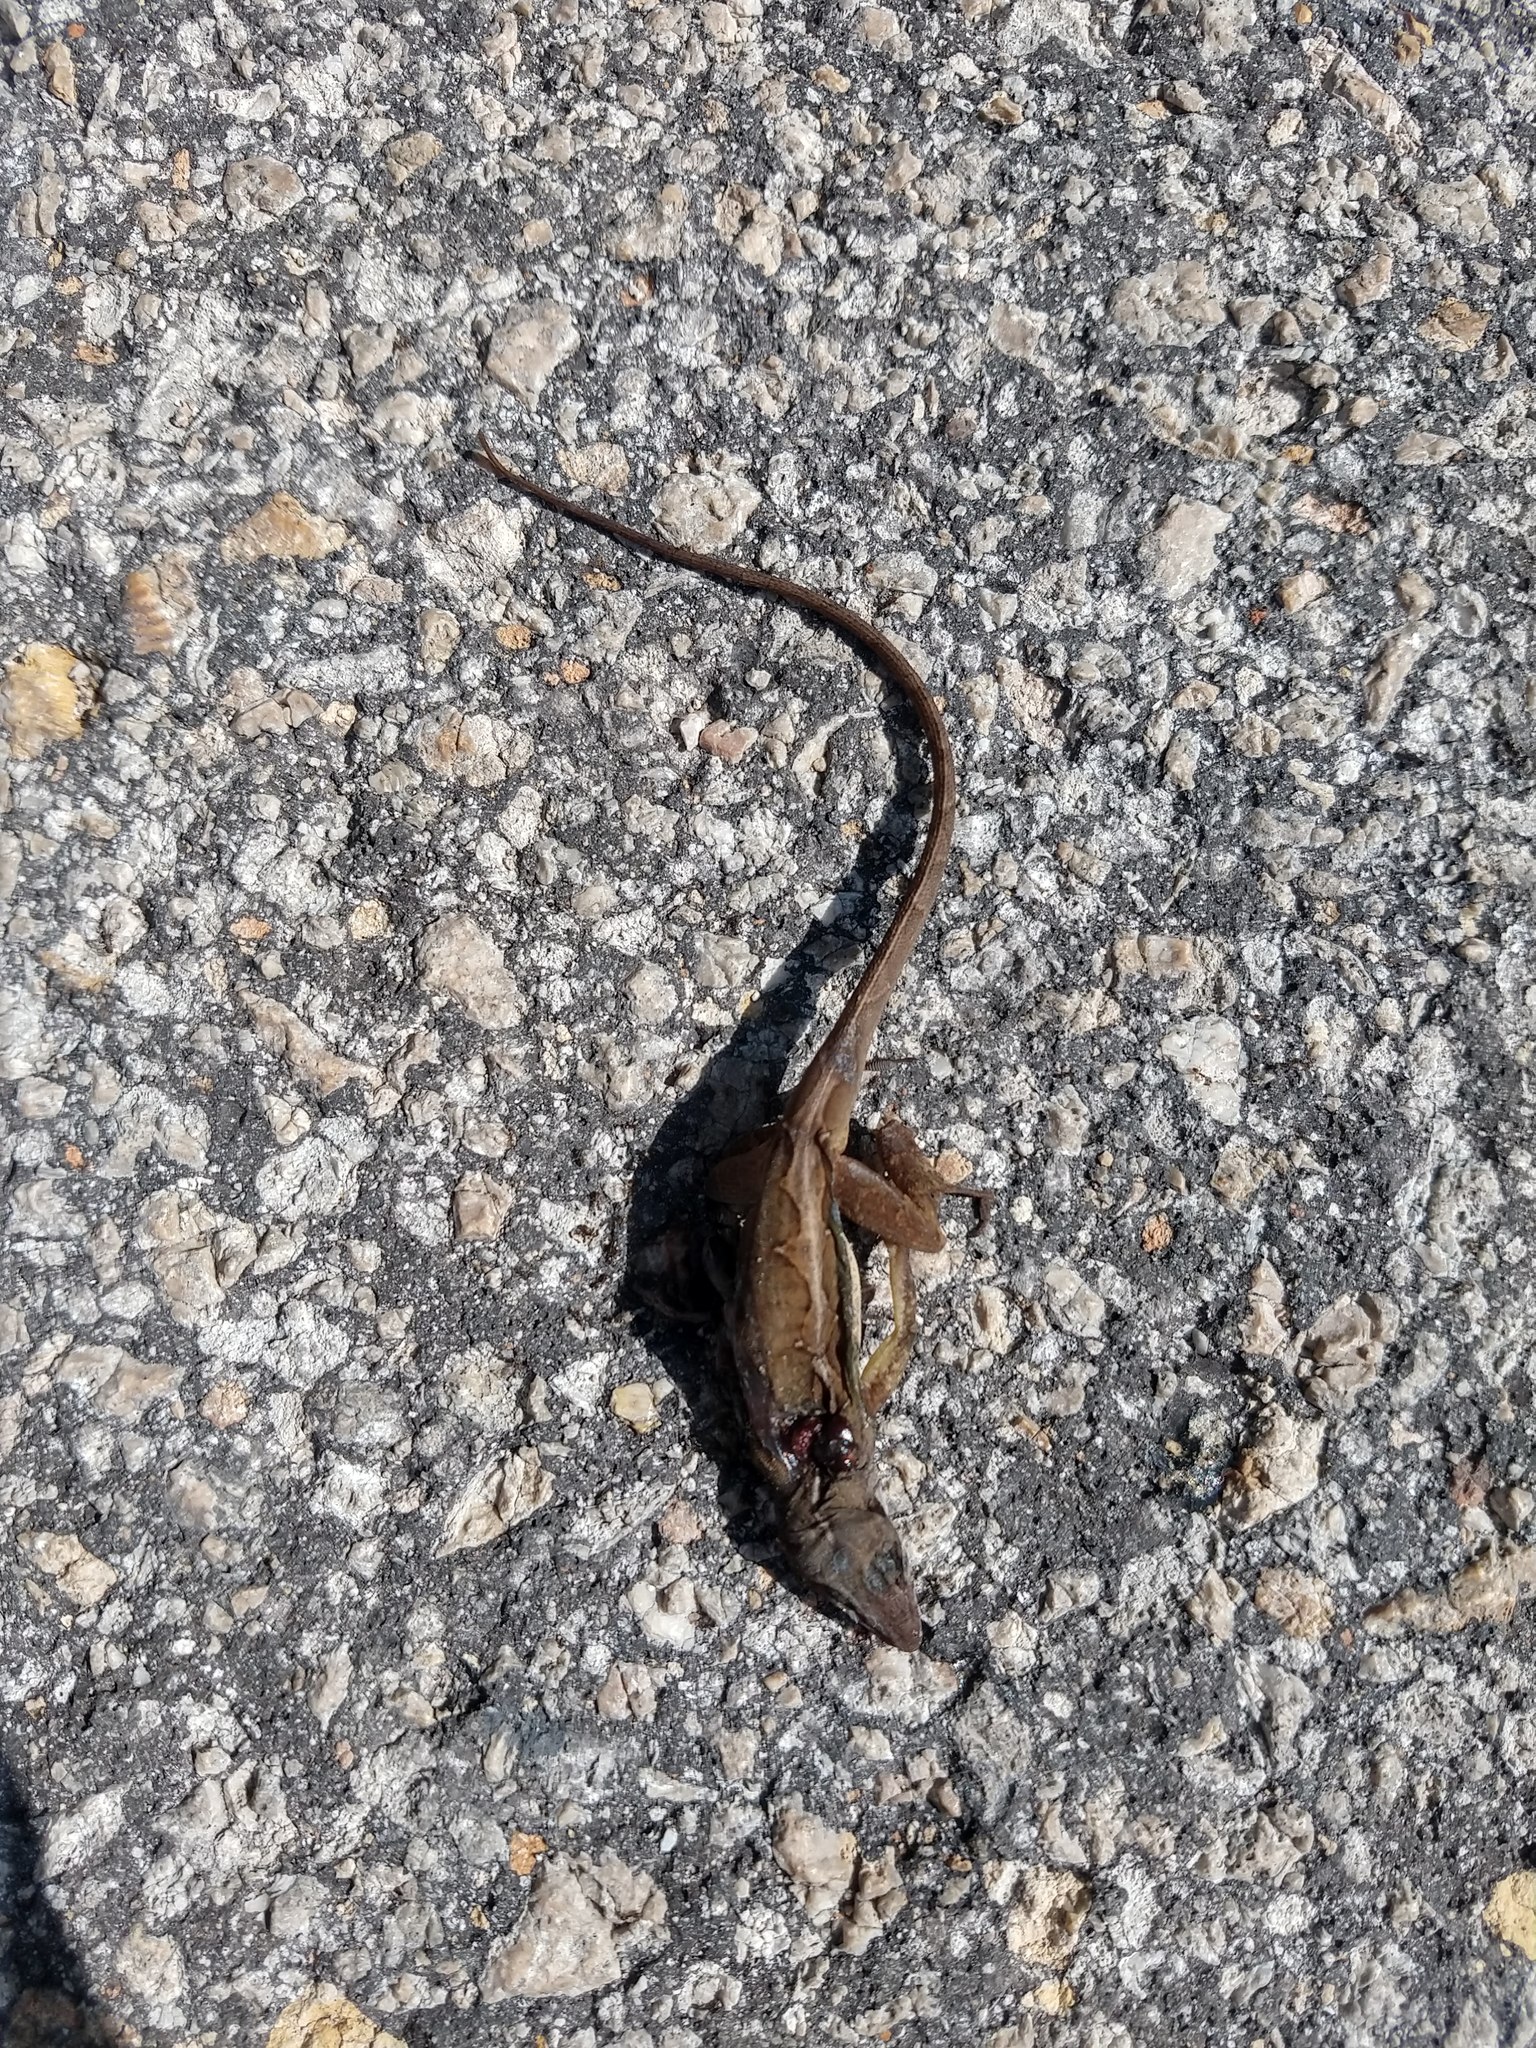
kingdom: Animalia
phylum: Chordata
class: Squamata
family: Dactyloidae
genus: Anolis
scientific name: Anolis sagrei
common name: Brown anole
